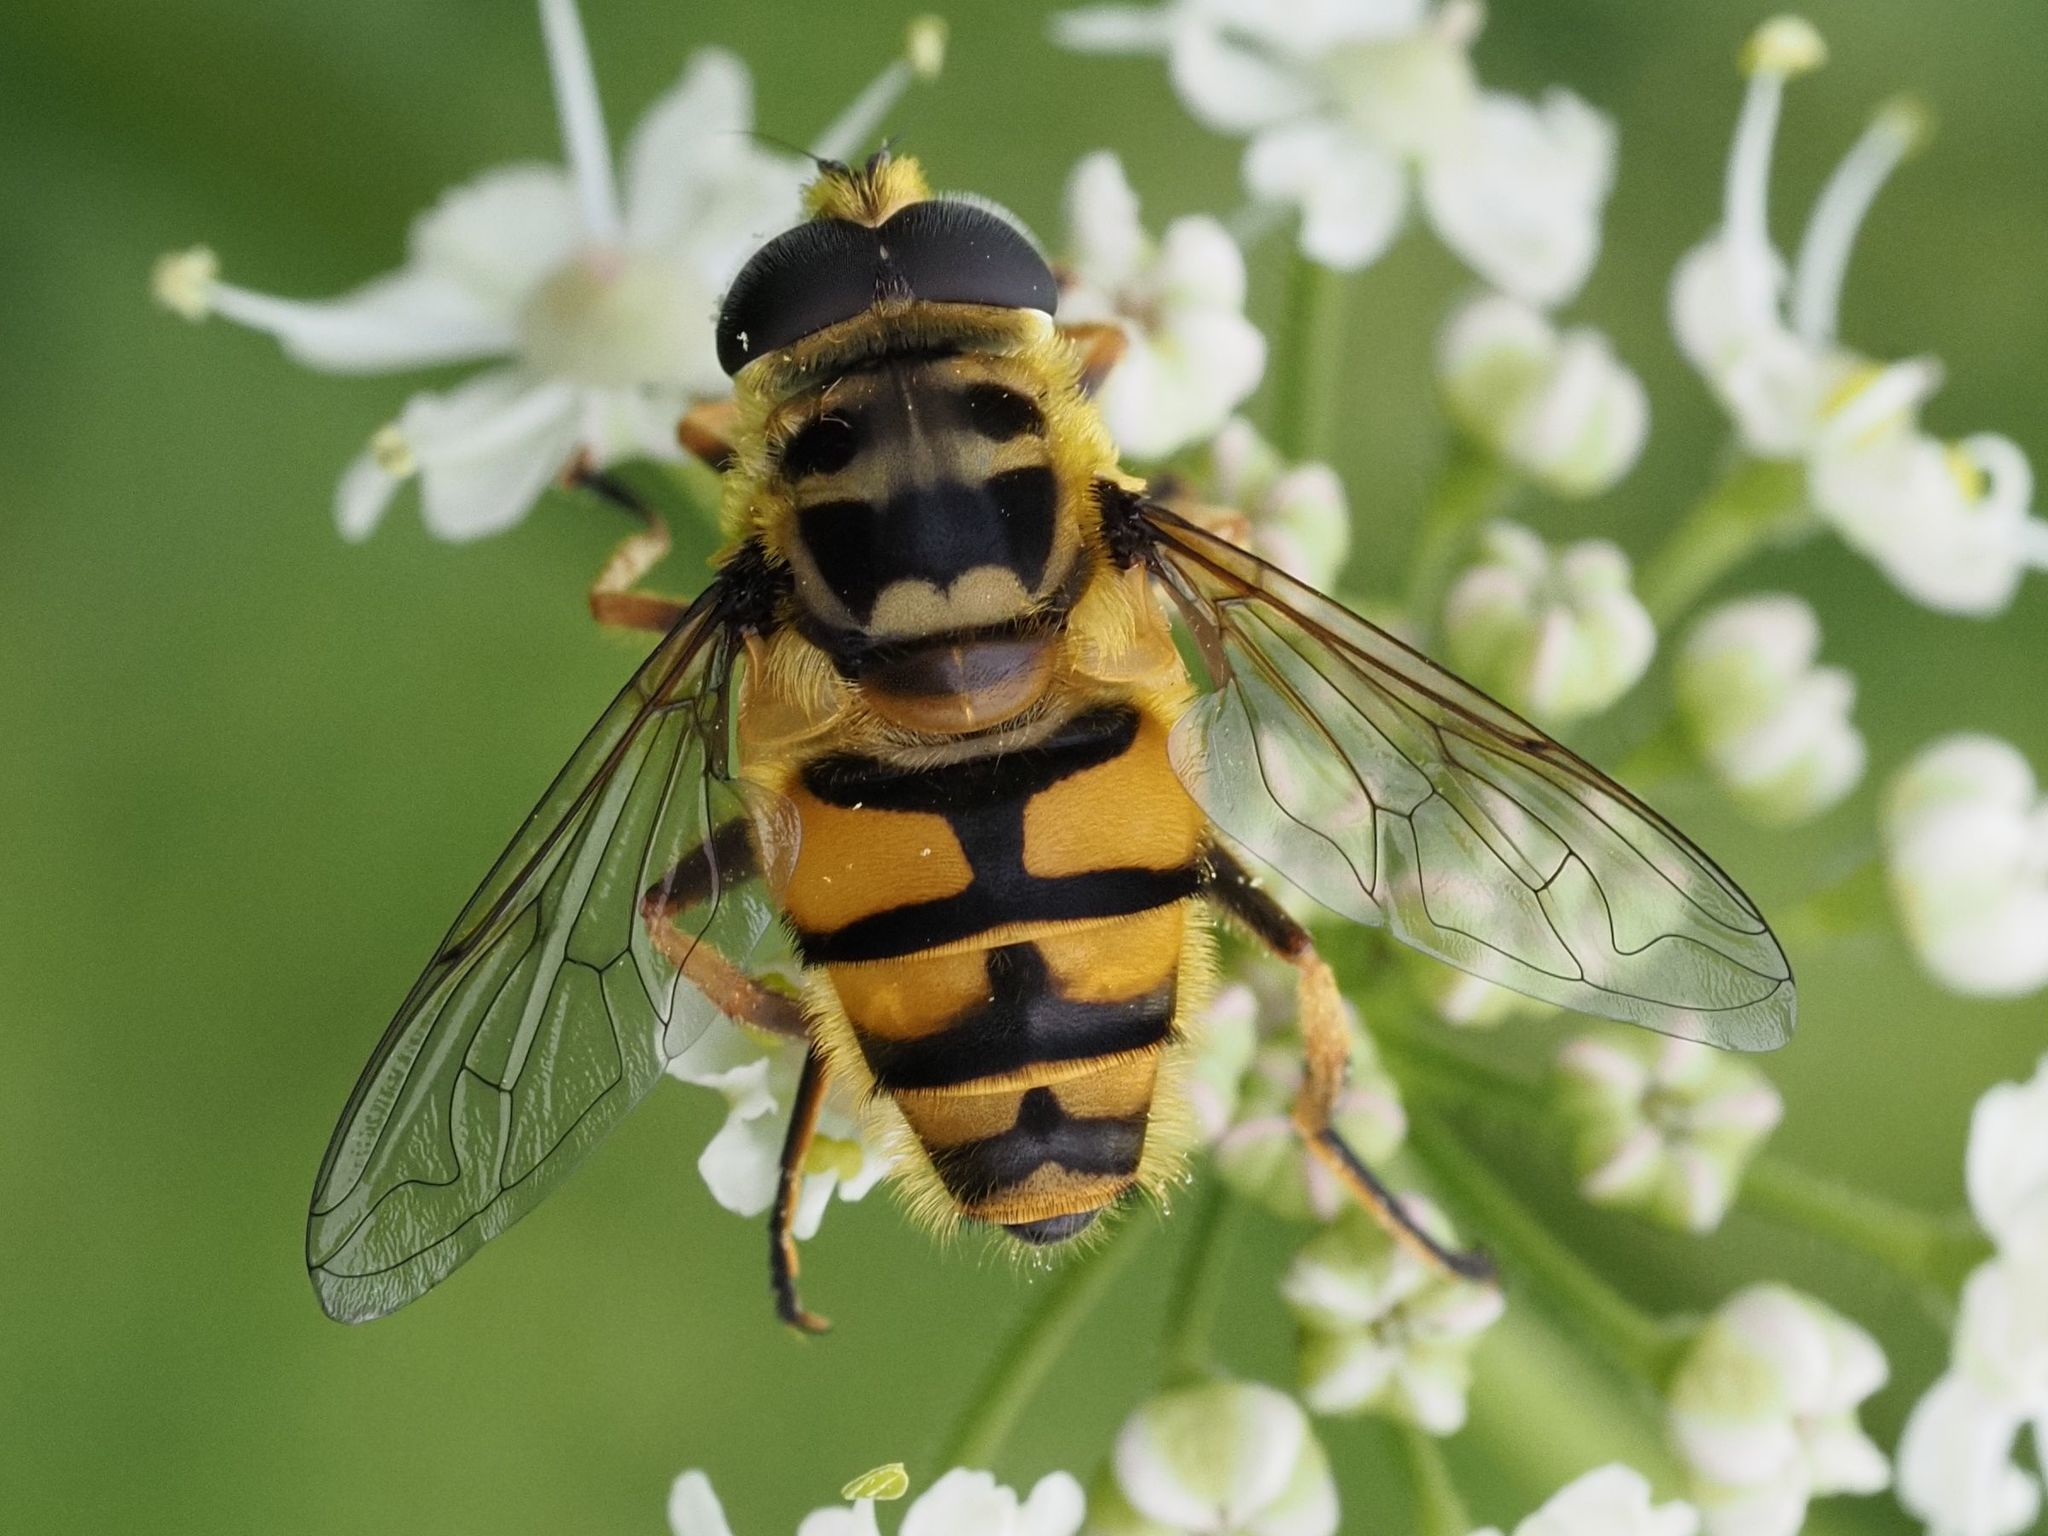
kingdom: Animalia
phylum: Arthropoda
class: Insecta
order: Diptera
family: Syrphidae
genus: Myathropa
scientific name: Myathropa florea
